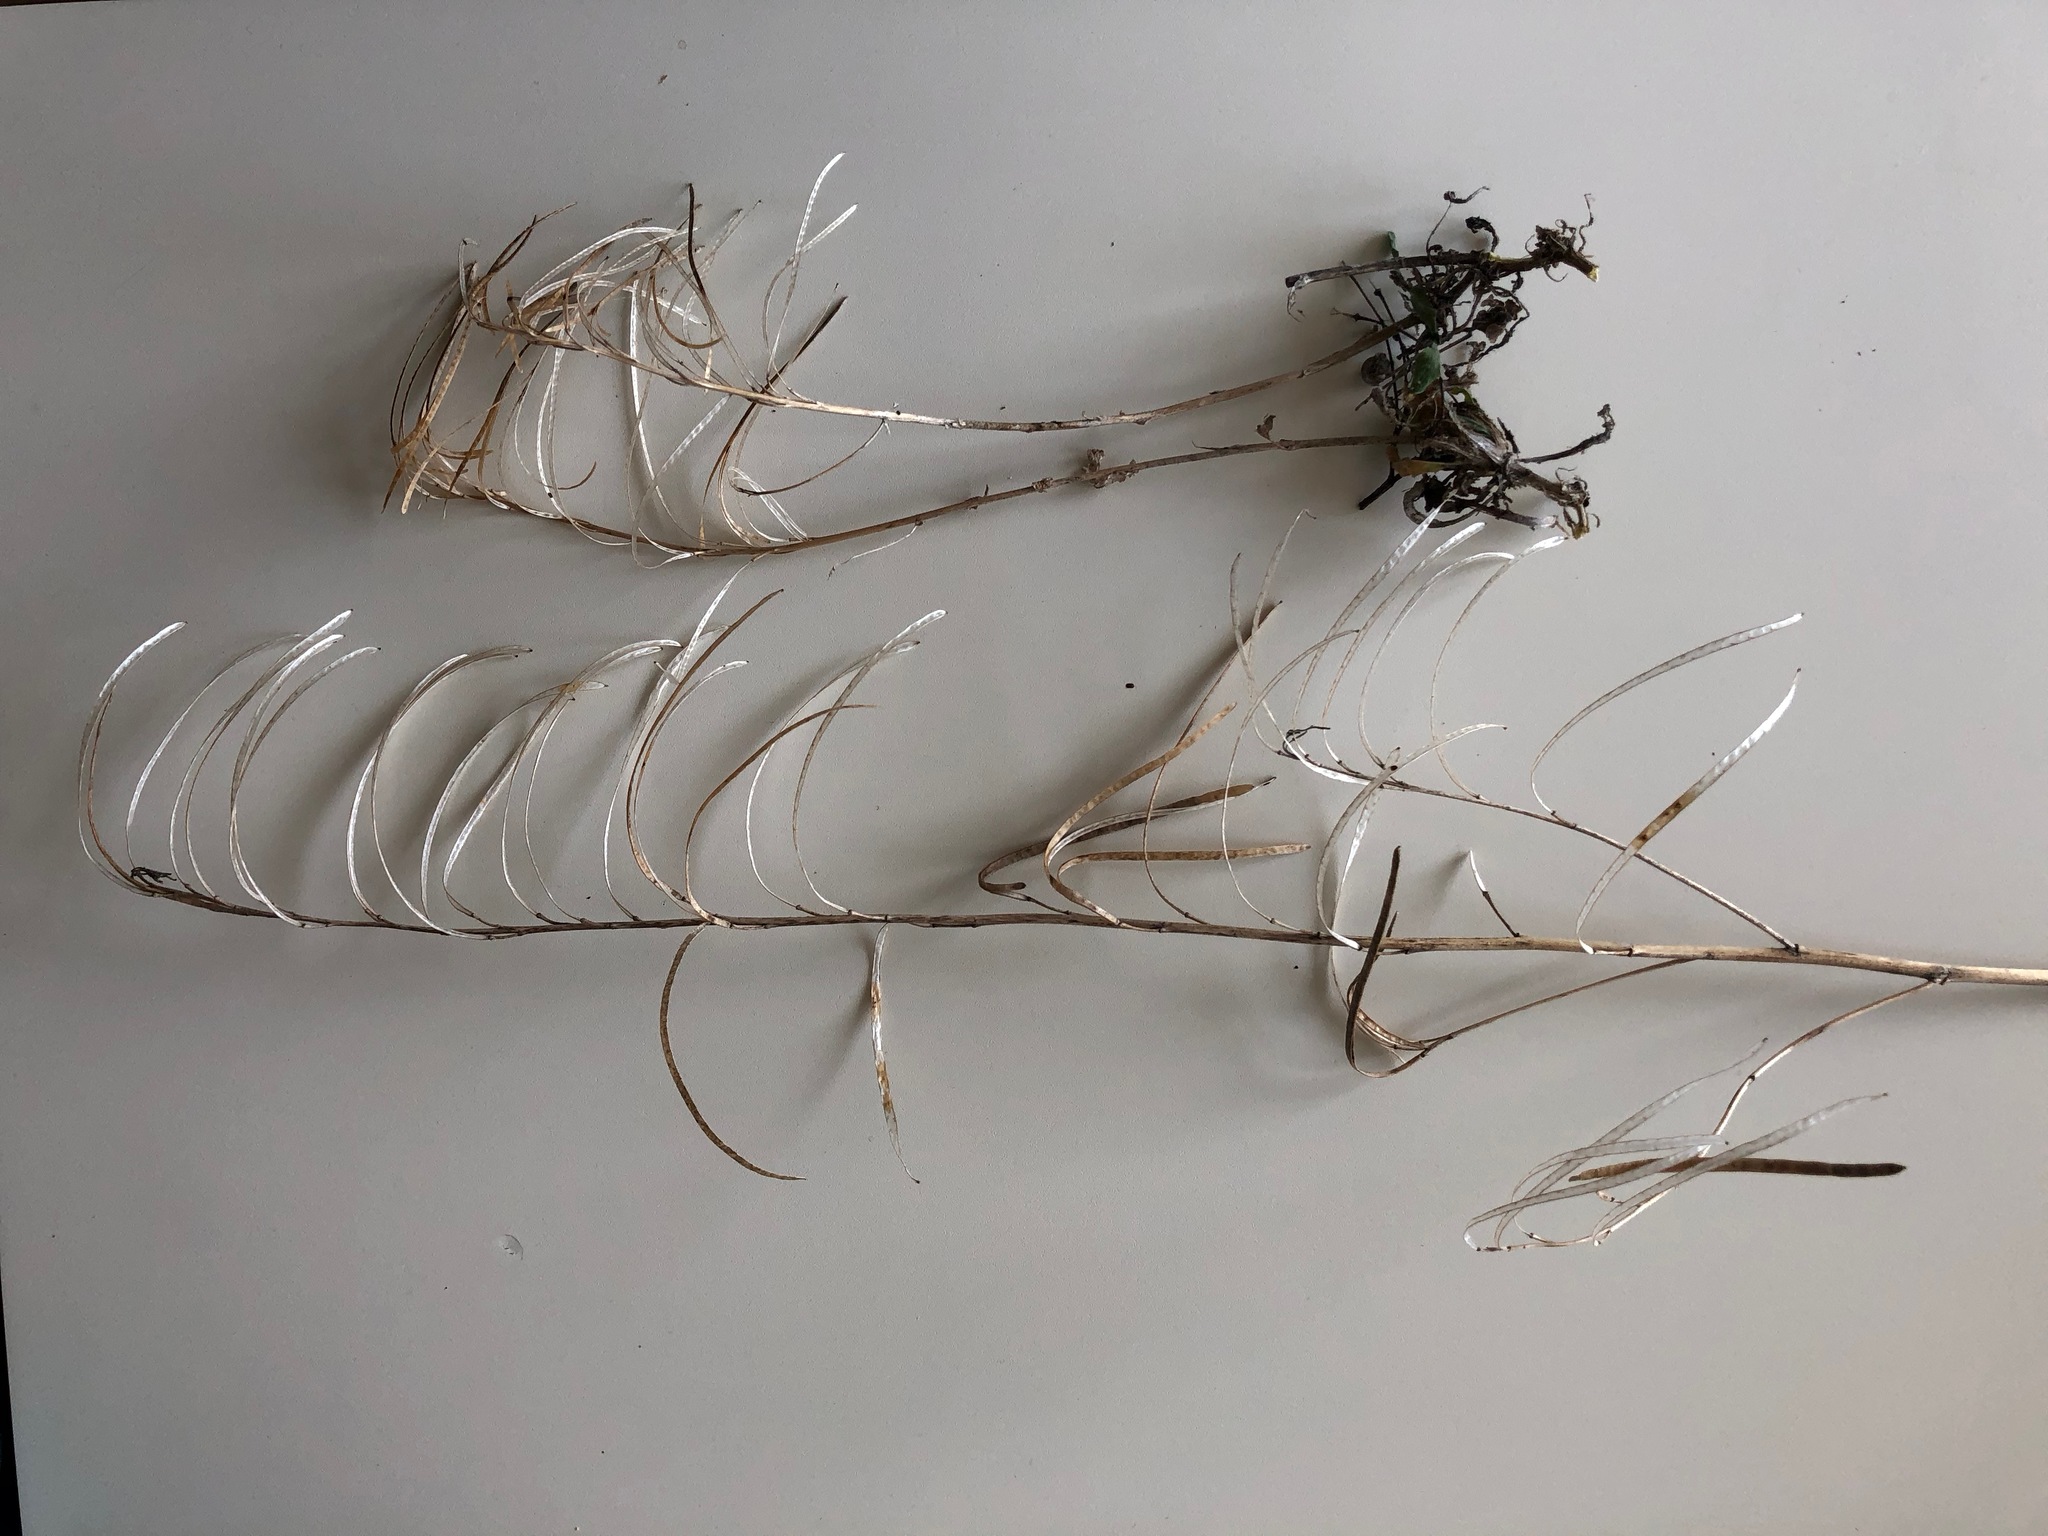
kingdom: Plantae
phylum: Tracheophyta
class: Magnoliopsida
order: Brassicales
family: Brassicaceae
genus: Arabis
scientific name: Arabis collina
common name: Rosy cress
